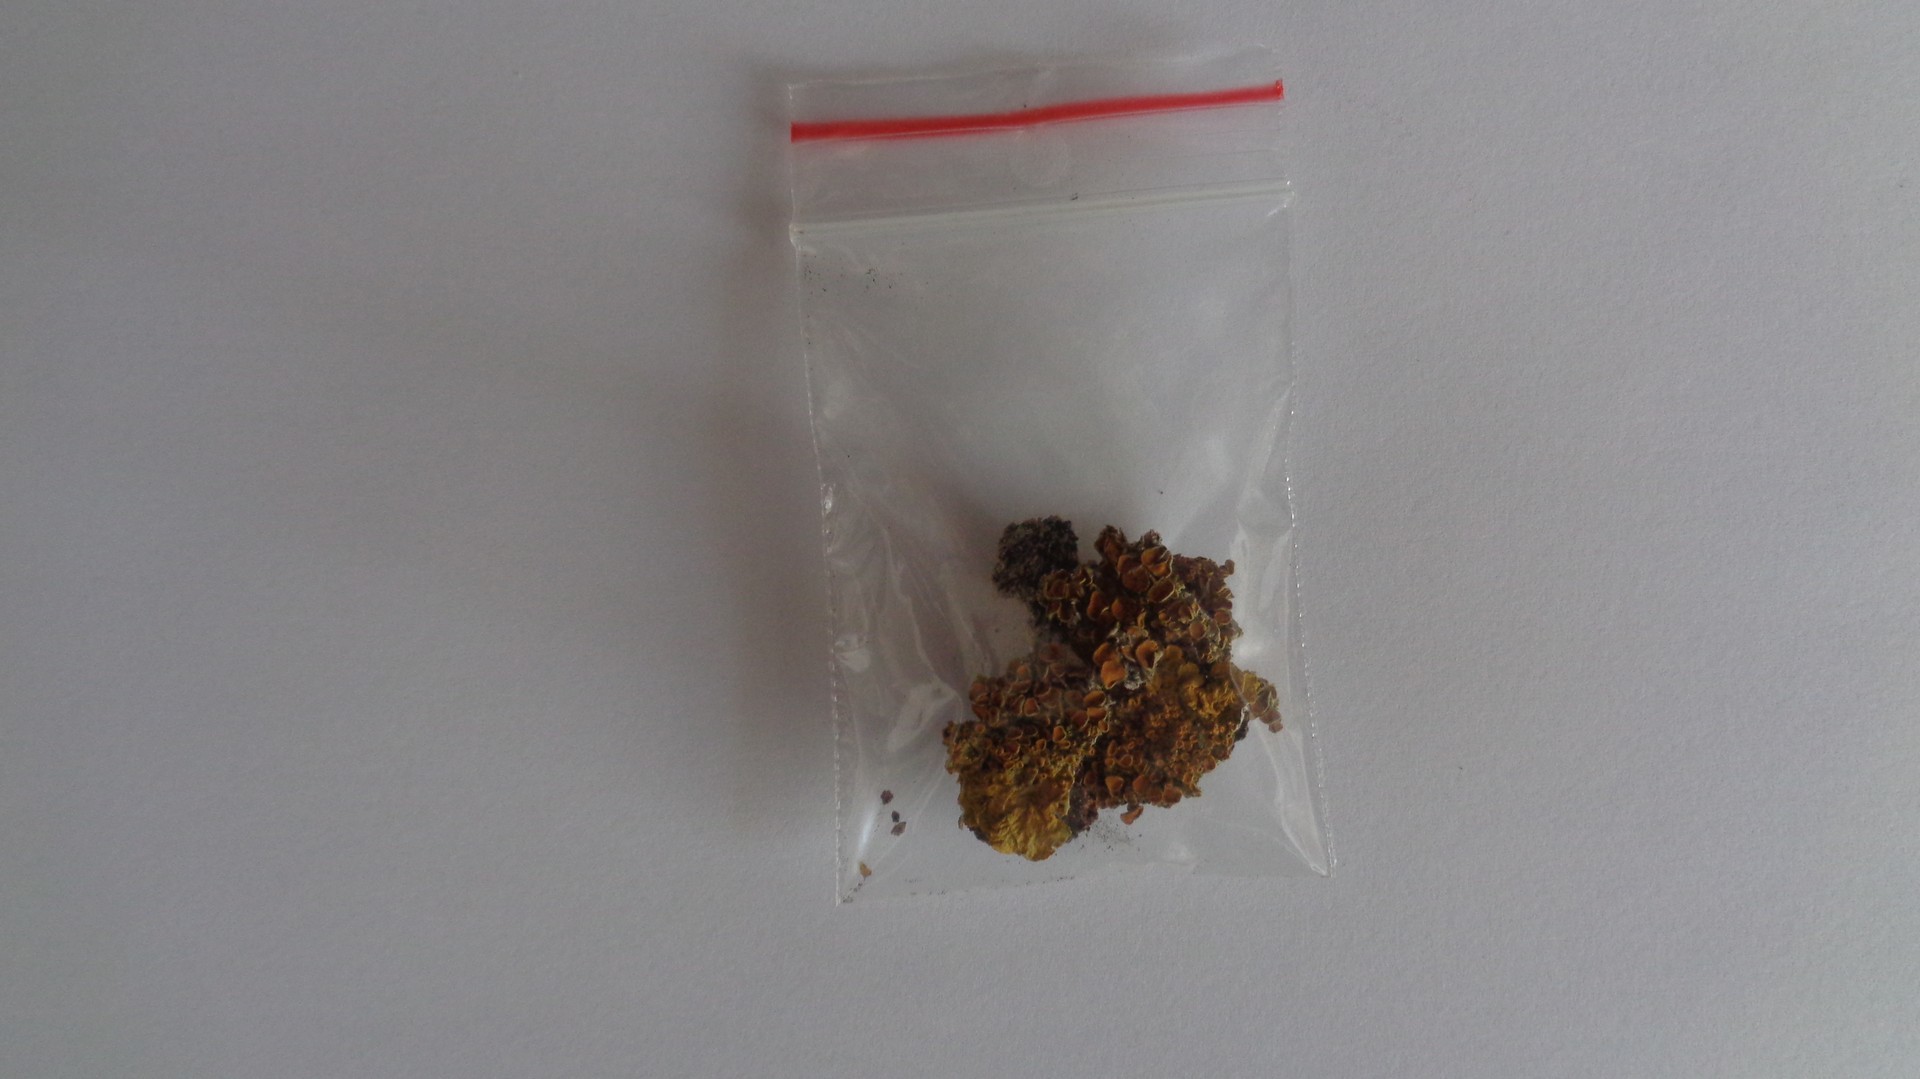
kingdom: Fungi
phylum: Ascomycota
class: Lecanoromycetes
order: Teloschistales
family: Teloschistaceae
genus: Xanthoria
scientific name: Xanthoria parietina
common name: Common orange lichen
